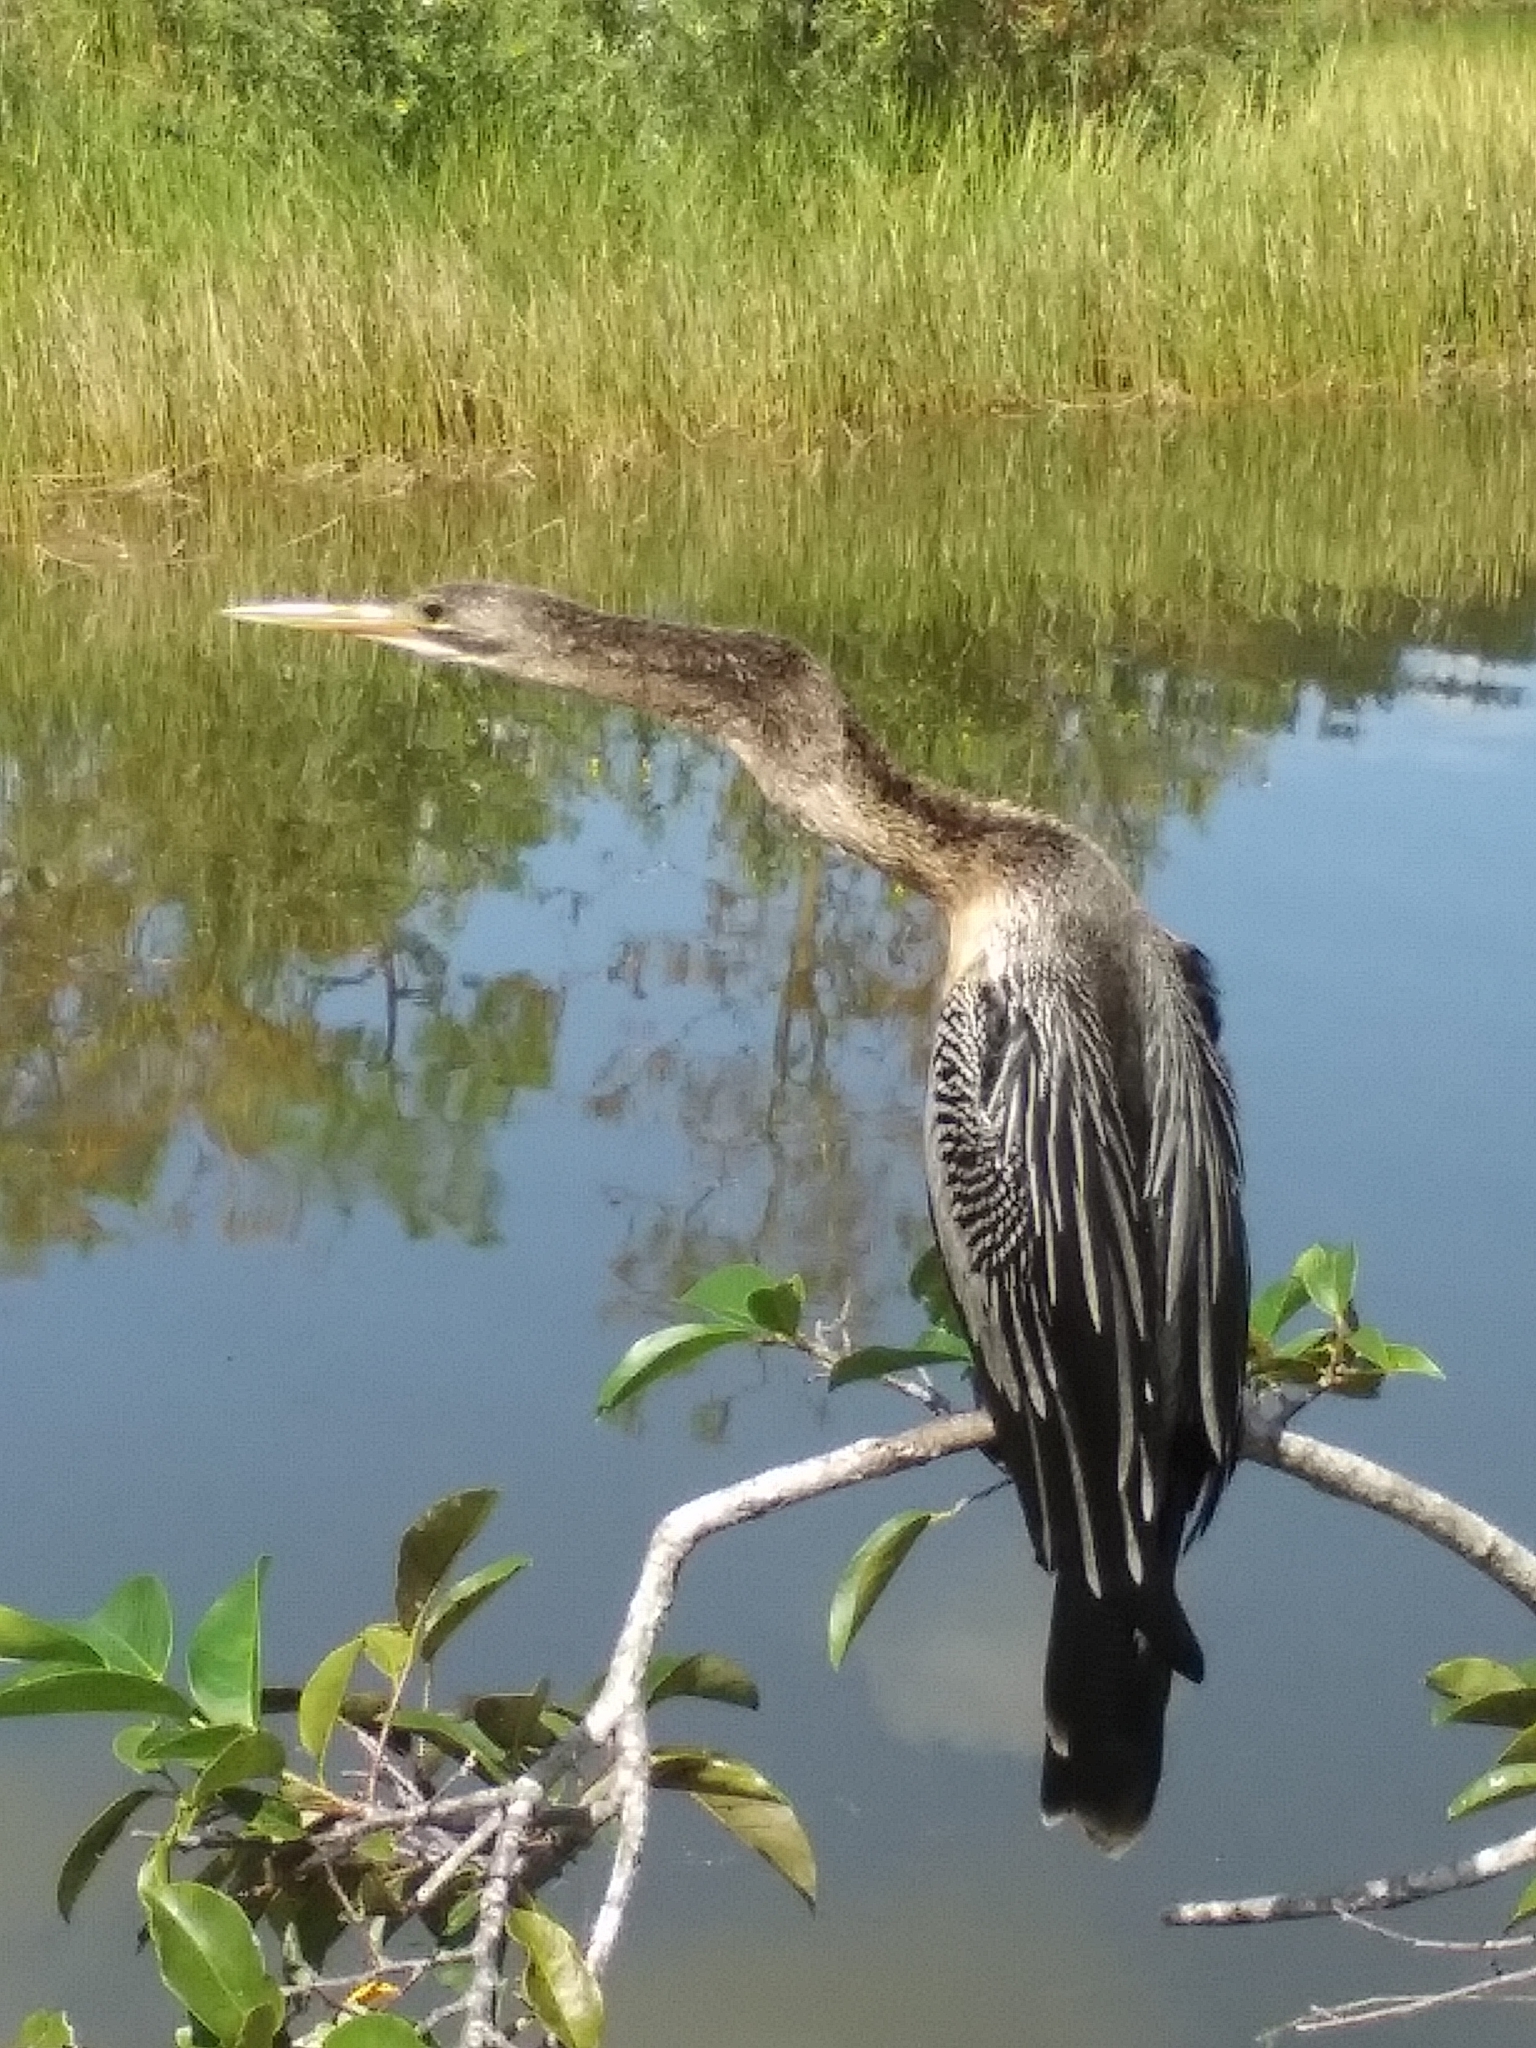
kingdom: Animalia
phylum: Chordata
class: Aves
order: Suliformes
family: Anhingidae
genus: Anhinga
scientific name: Anhinga anhinga
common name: Anhinga
